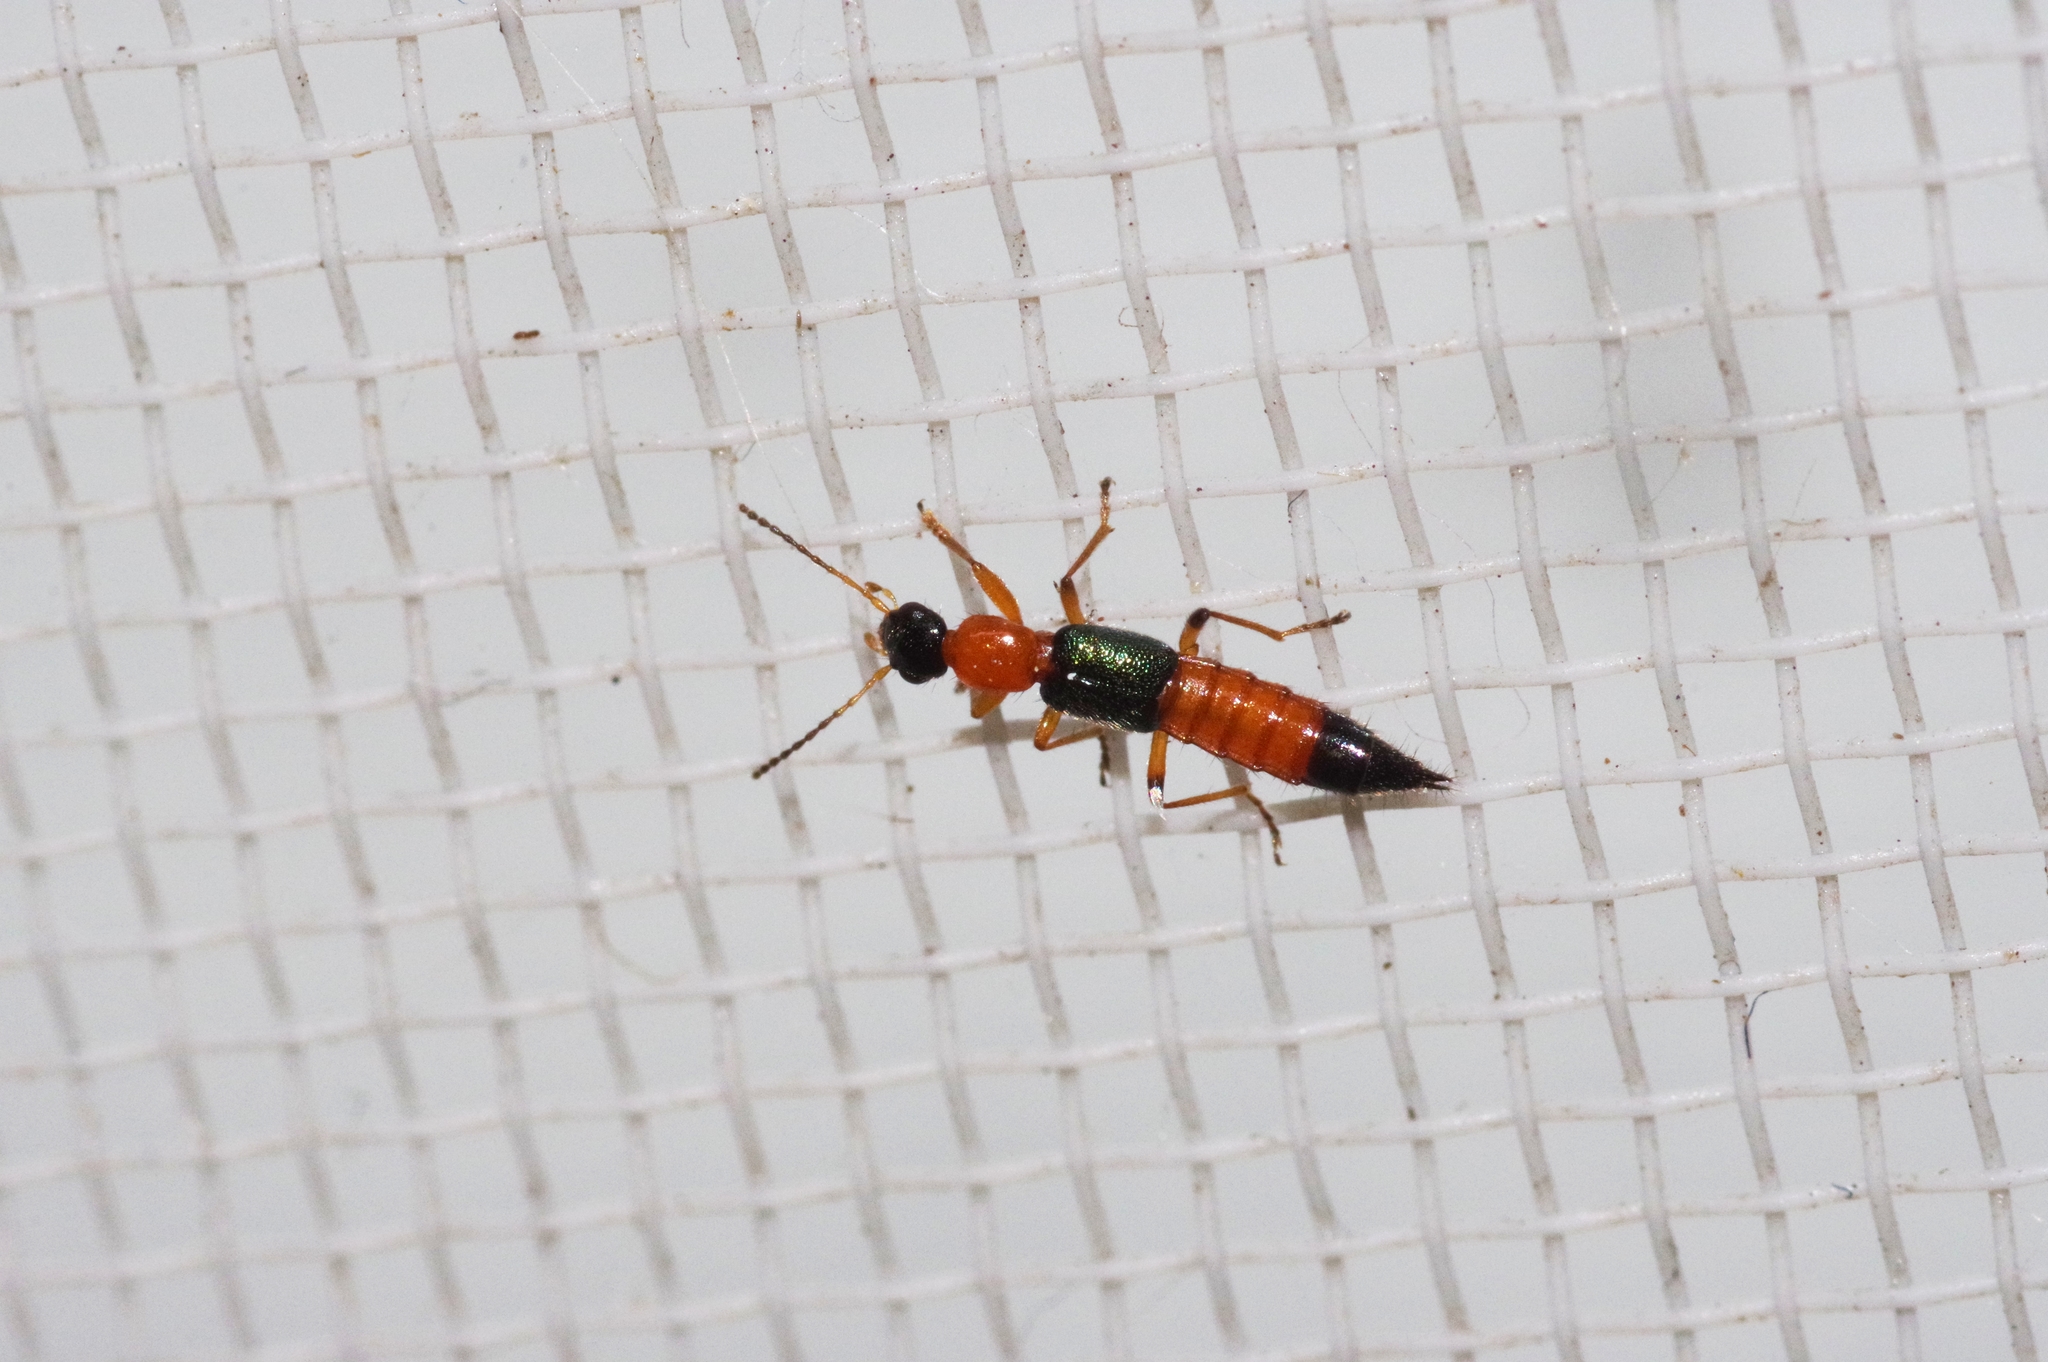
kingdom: Animalia
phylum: Arthropoda
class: Insecta
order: Coleoptera
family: Staphylinidae
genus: Paederus
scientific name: Paederus fuscipes
